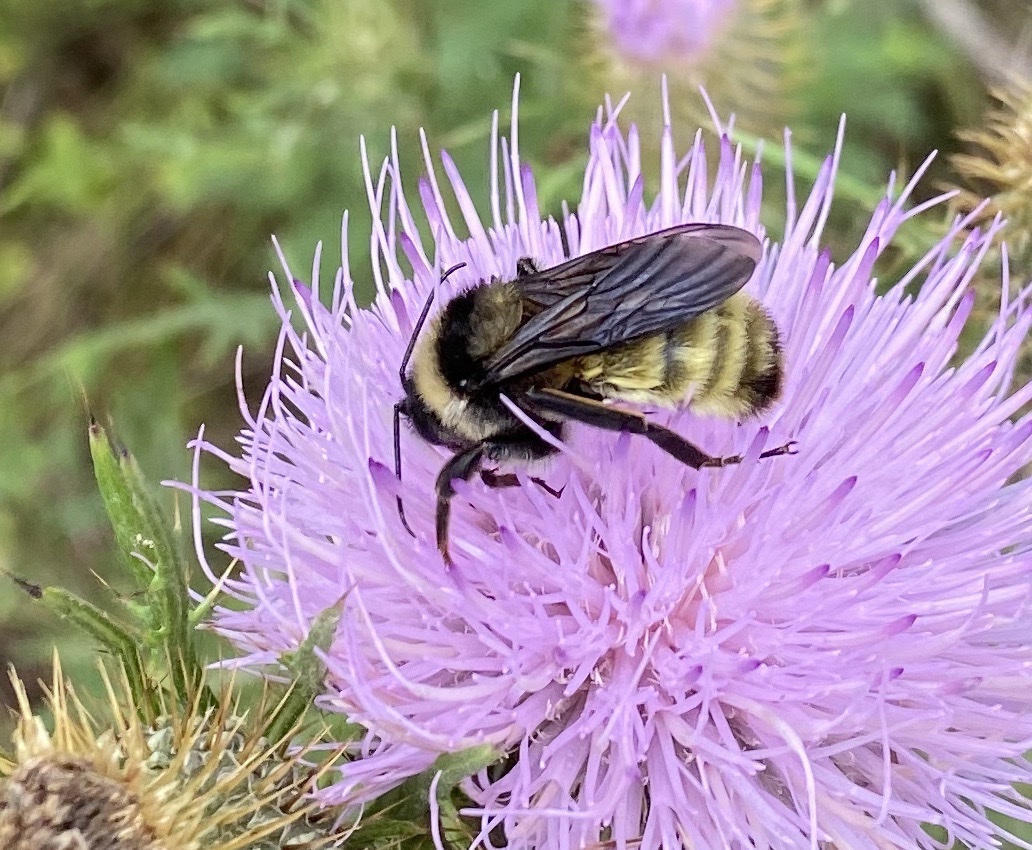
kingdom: Animalia
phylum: Arthropoda
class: Insecta
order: Hymenoptera
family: Apidae
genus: Bombus
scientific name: Bombus pensylvanicus
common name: Bumble bee
